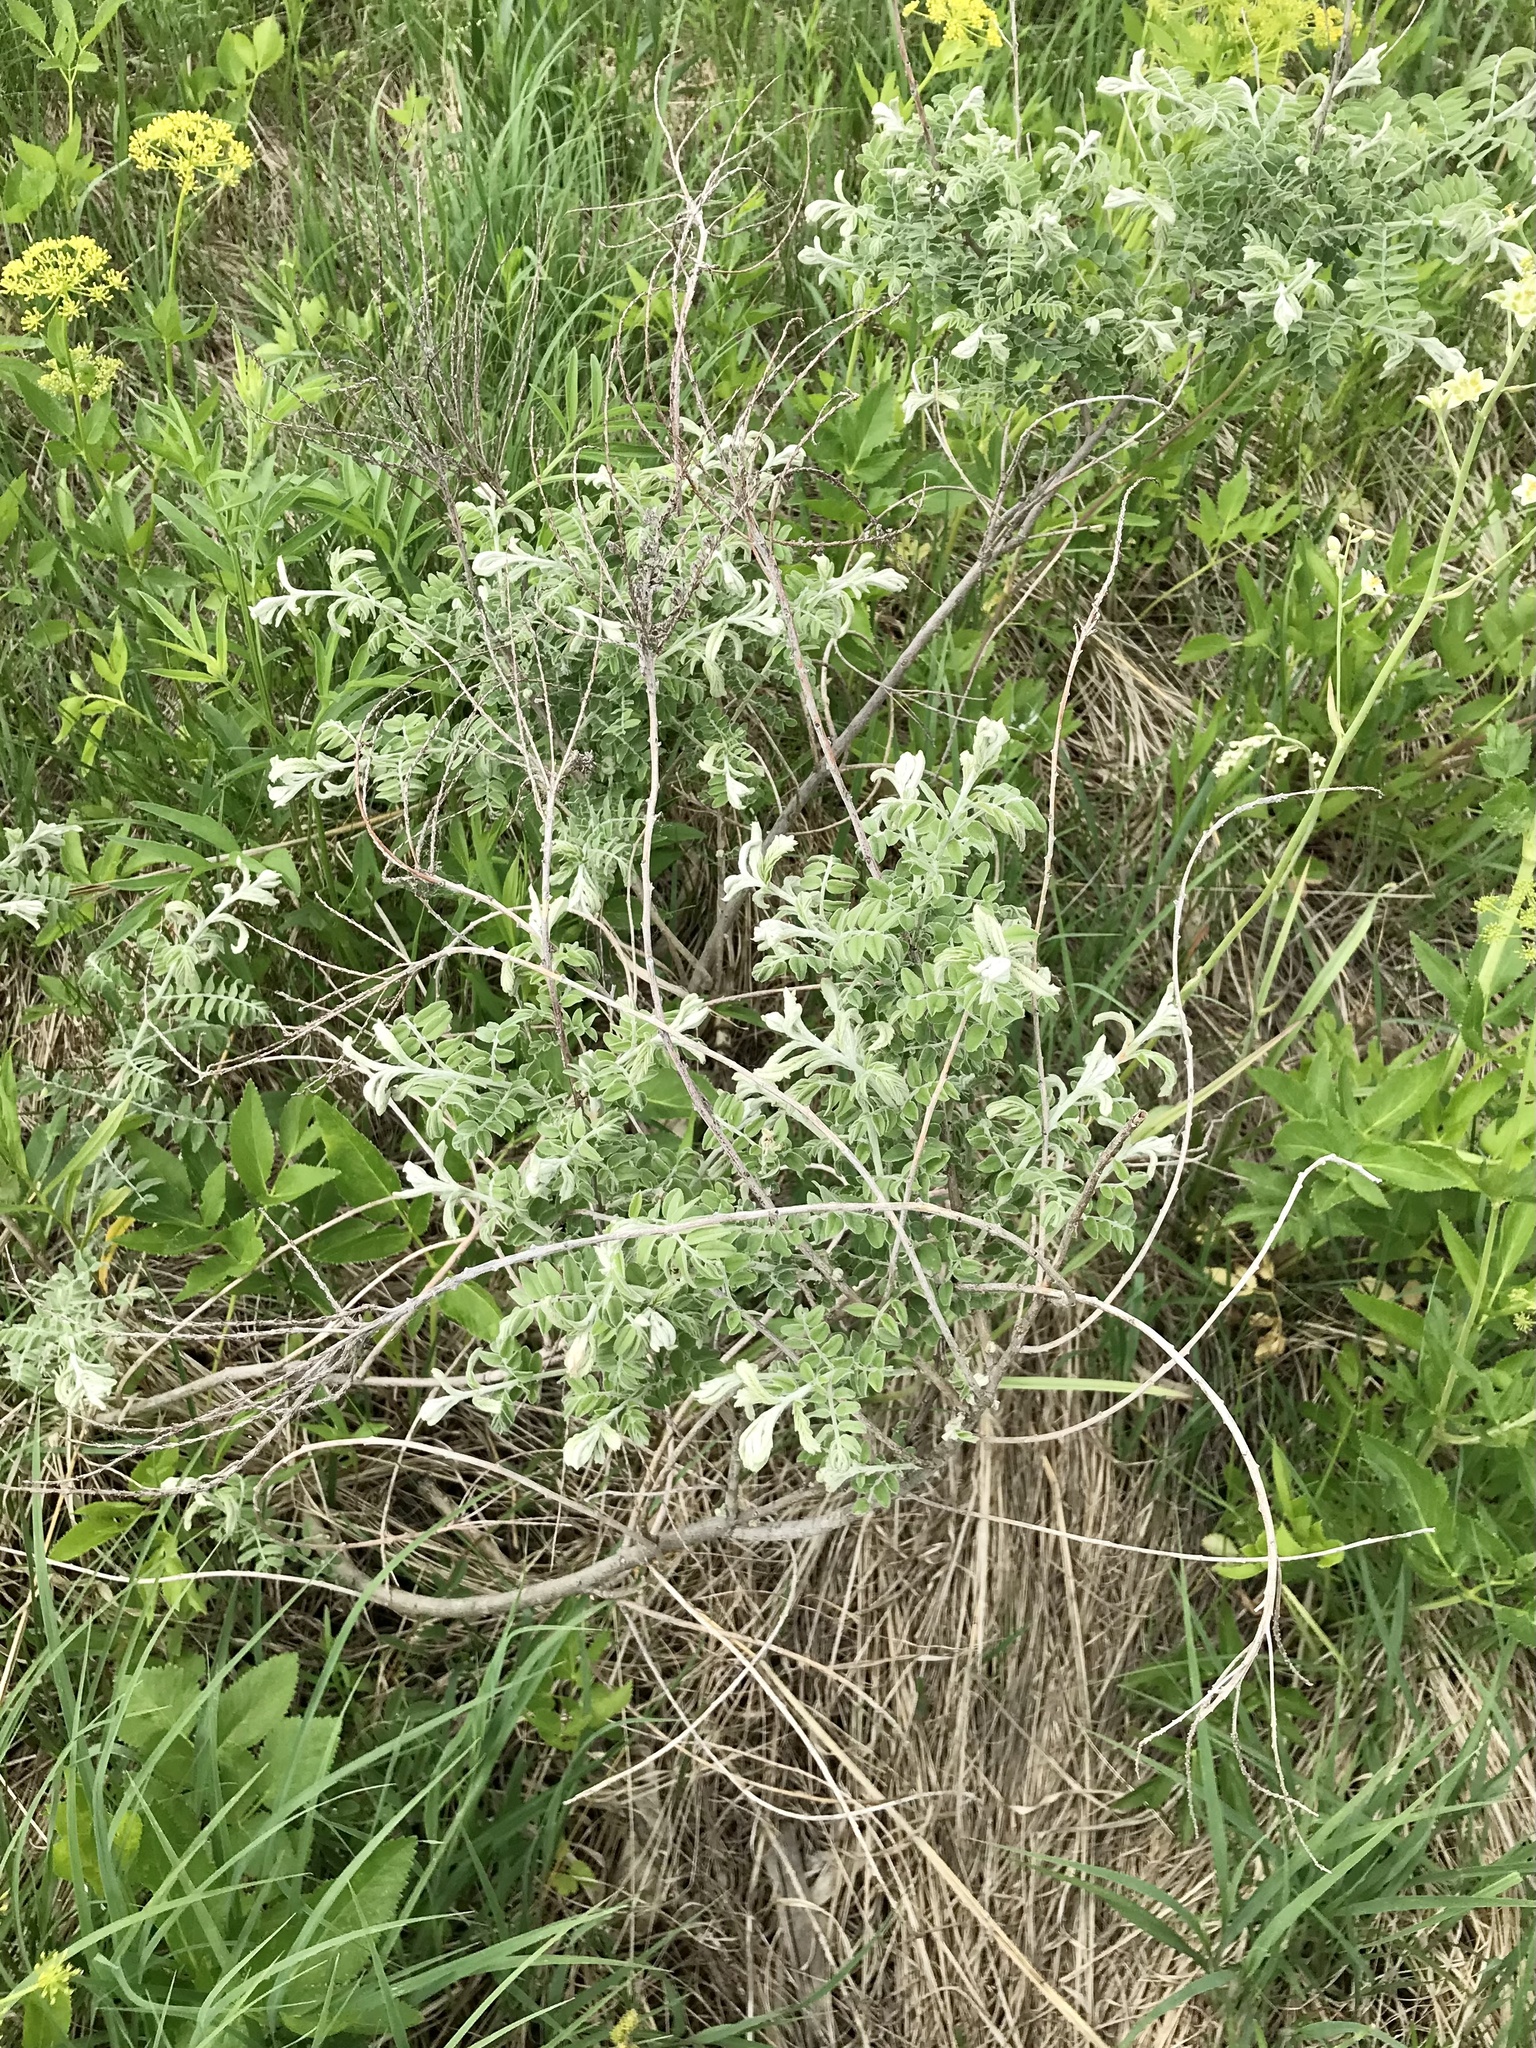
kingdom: Plantae
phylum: Tracheophyta
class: Magnoliopsida
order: Fabales
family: Fabaceae
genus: Amorpha
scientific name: Amorpha canescens
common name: Leadplant
